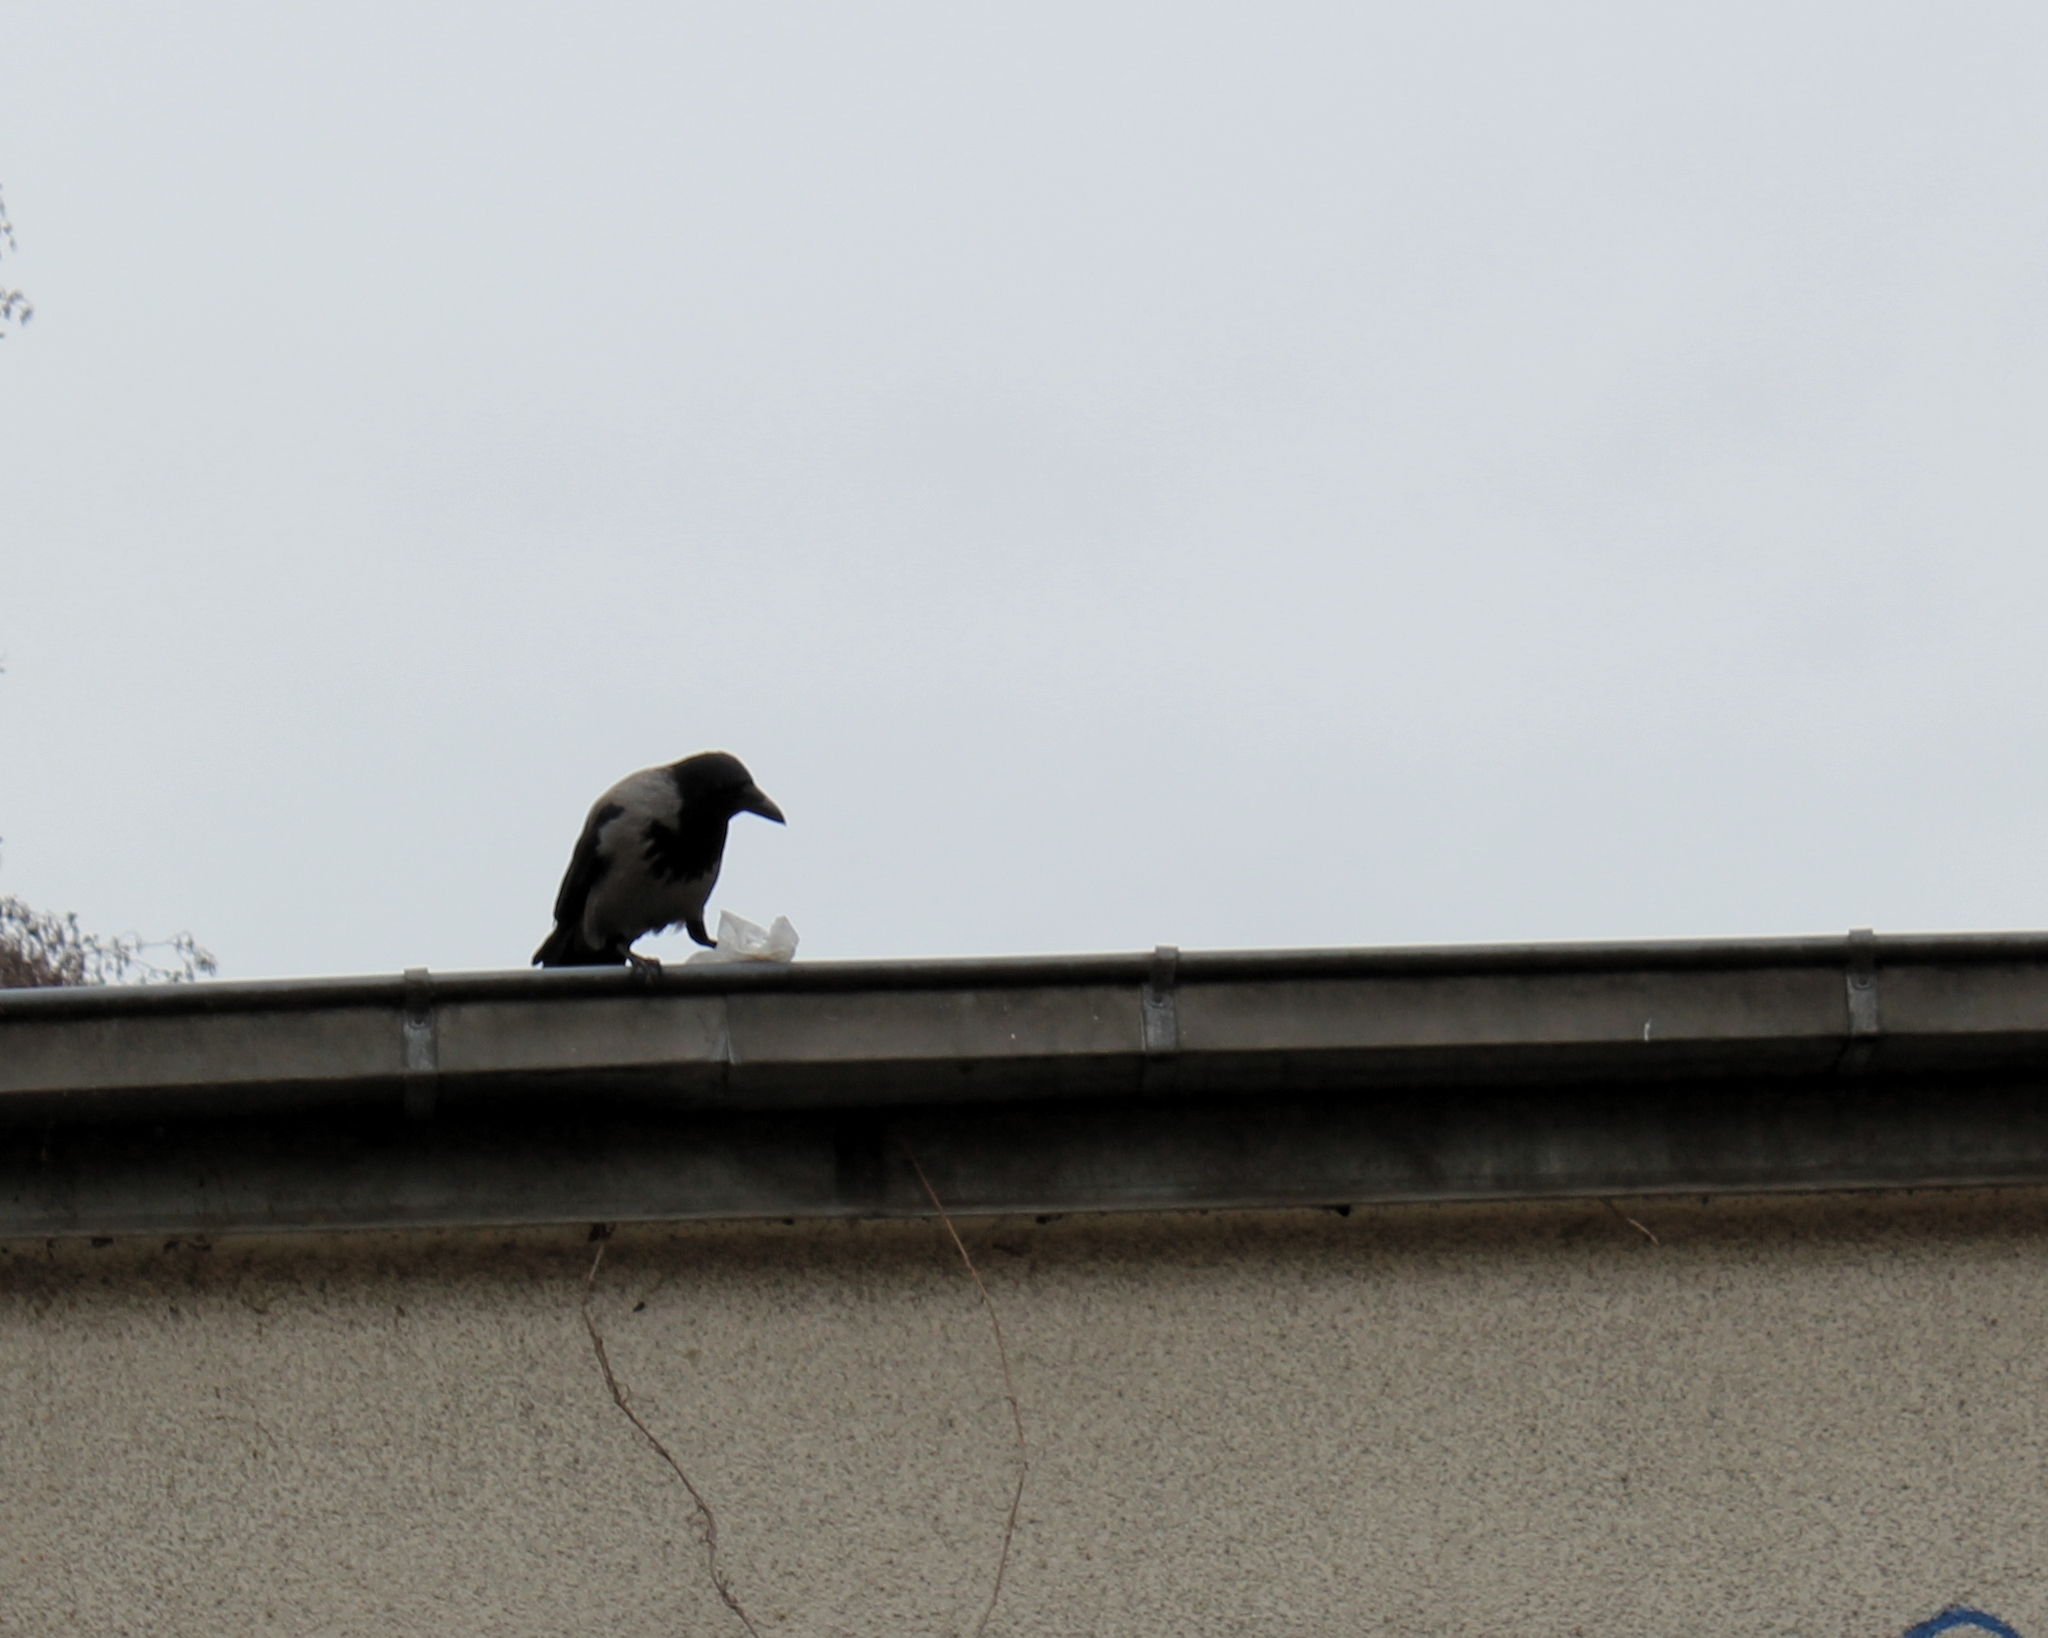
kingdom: Animalia
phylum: Chordata
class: Aves
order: Passeriformes
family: Corvidae
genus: Corvus
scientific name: Corvus cornix
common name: Hooded crow
